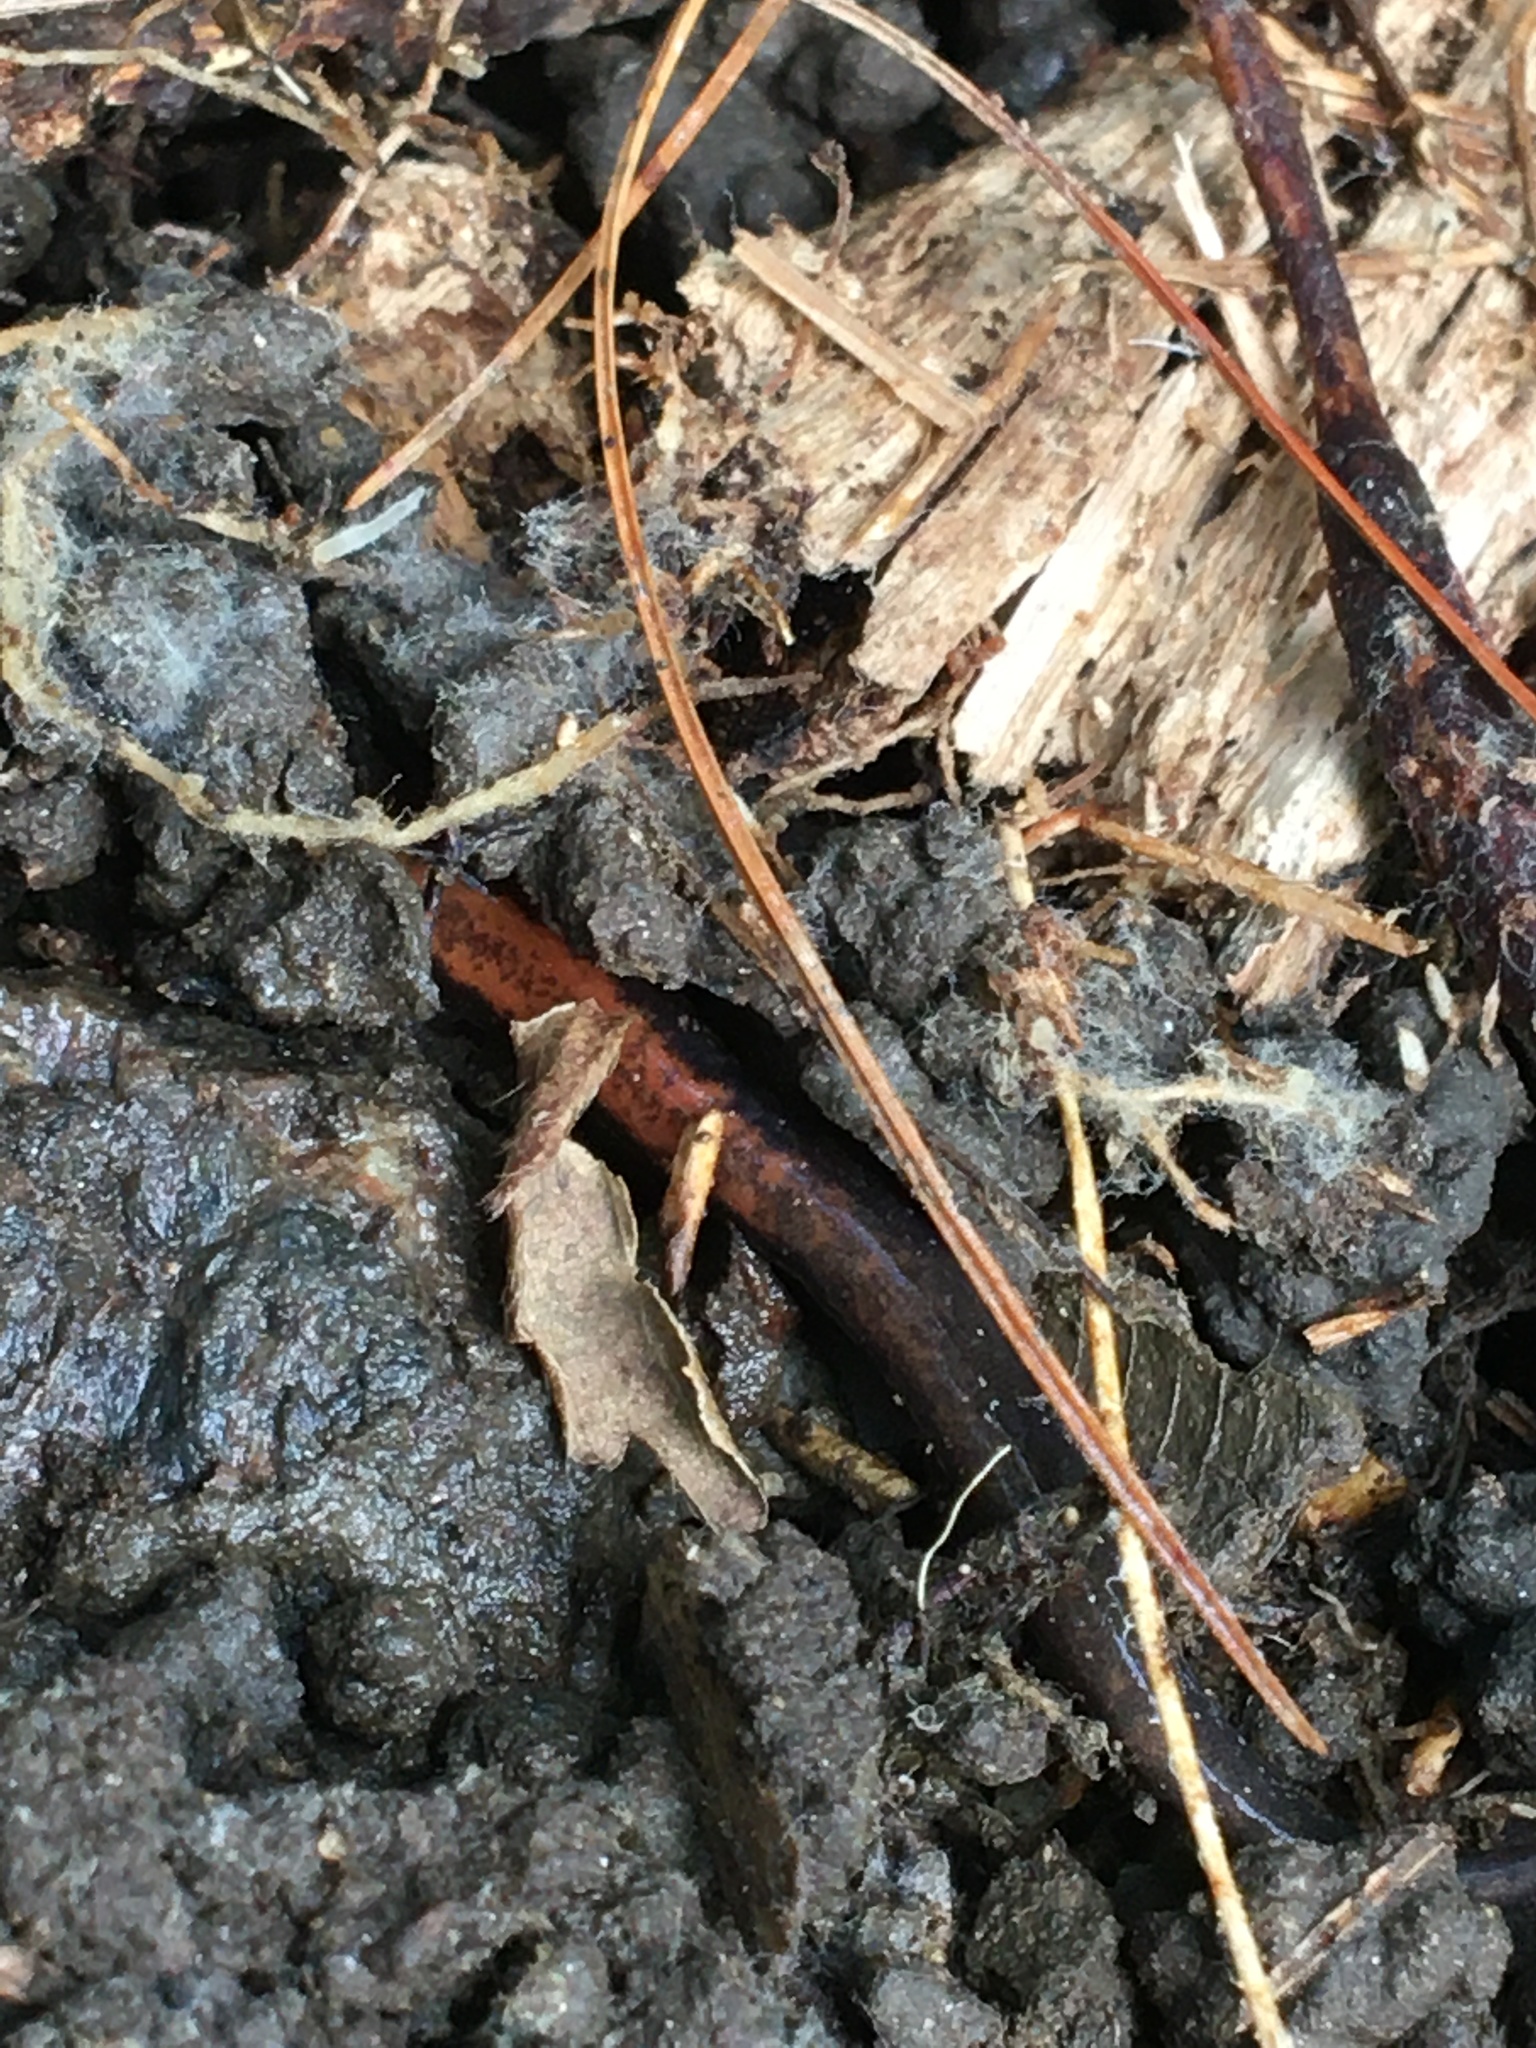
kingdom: Animalia
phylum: Chordata
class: Amphibia
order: Caudata
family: Plethodontidae
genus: Plethodon
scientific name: Plethodon cinereus
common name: Redback salamander
